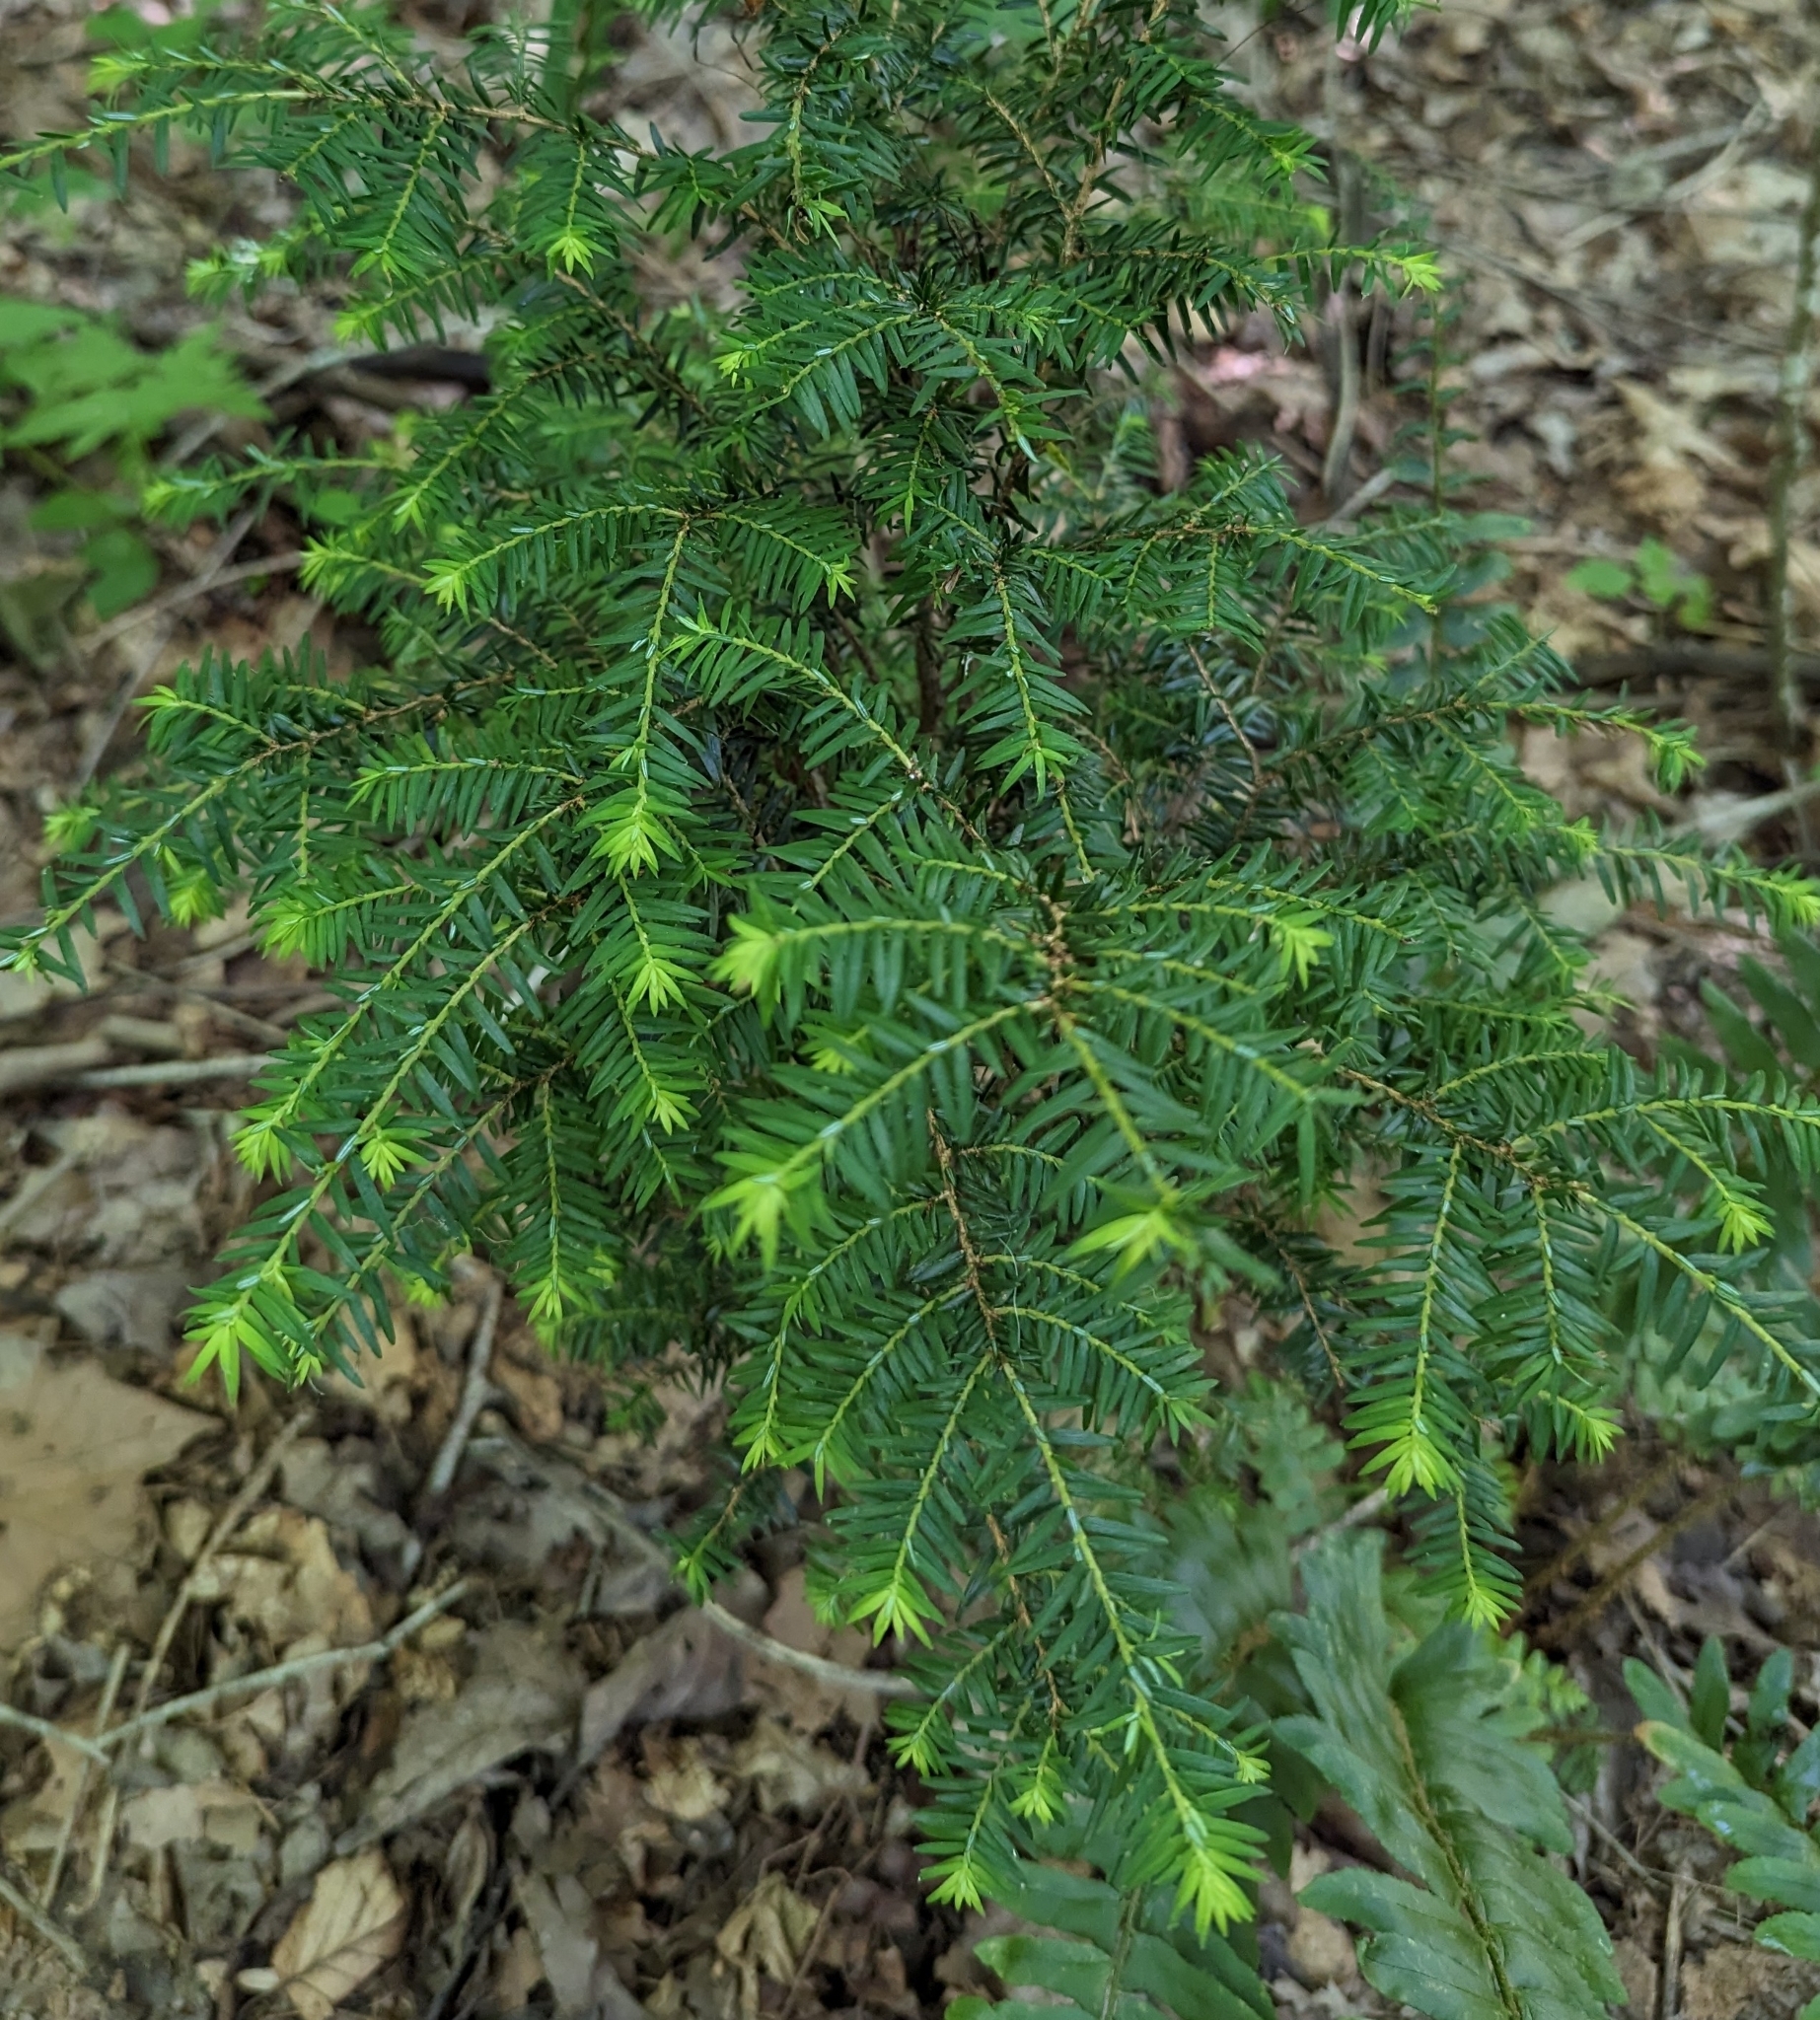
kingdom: Plantae
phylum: Tracheophyta
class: Pinopsida
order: Pinales
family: Pinaceae
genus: Tsuga
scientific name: Tsuga canadensis
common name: Eastern hemlock
